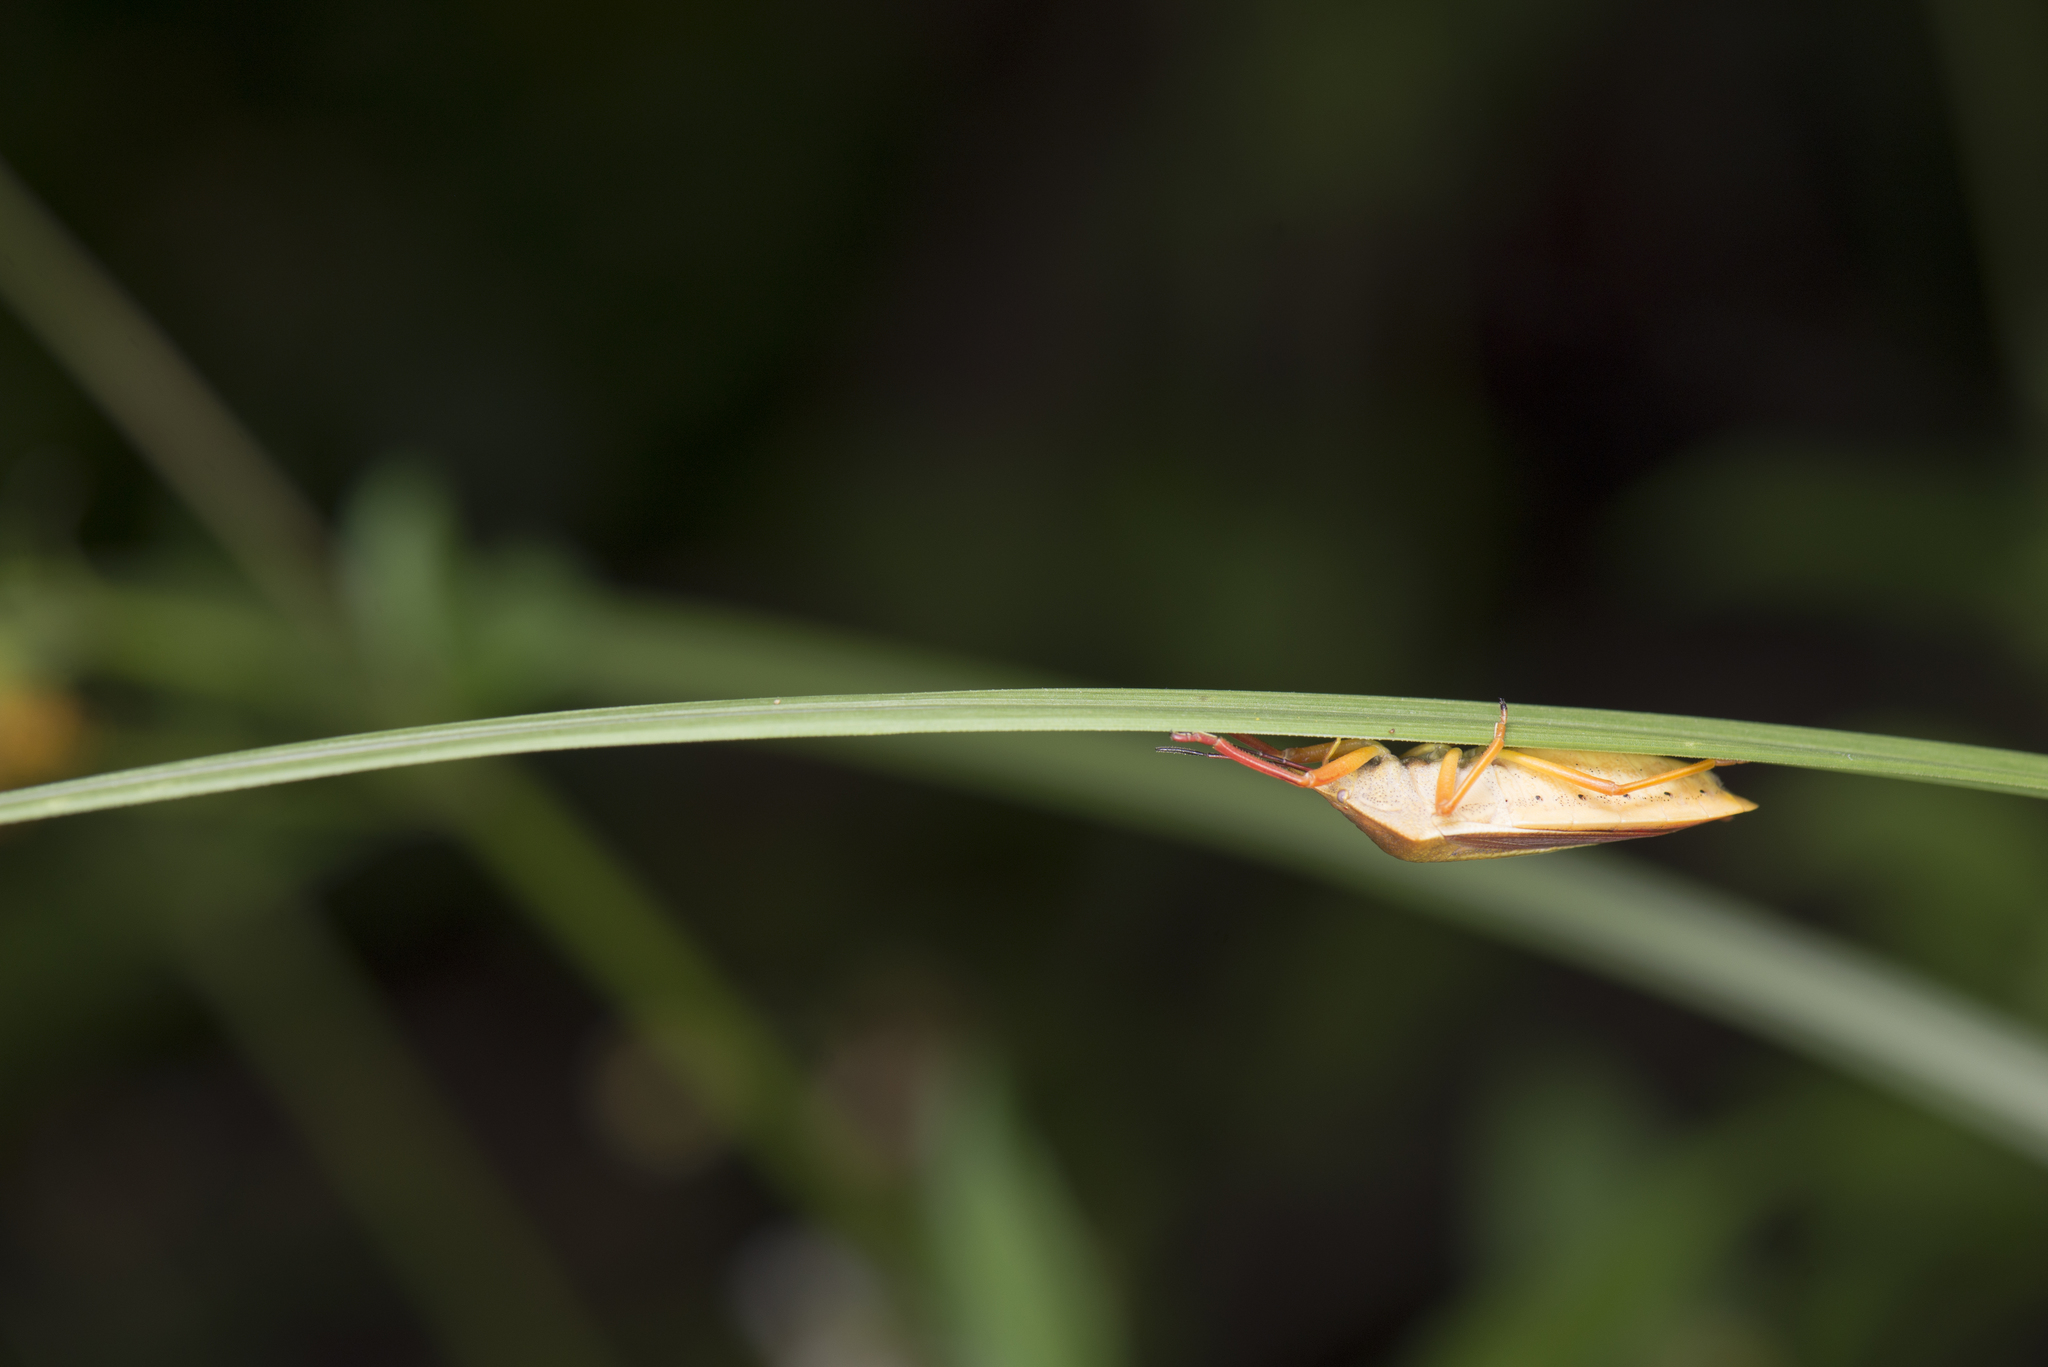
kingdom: Animalia
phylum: Arthropoda
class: Insecta
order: Hemiptera
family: Pentatomidae
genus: Megarrhamphus
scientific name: Megarrhamphus truncatus
